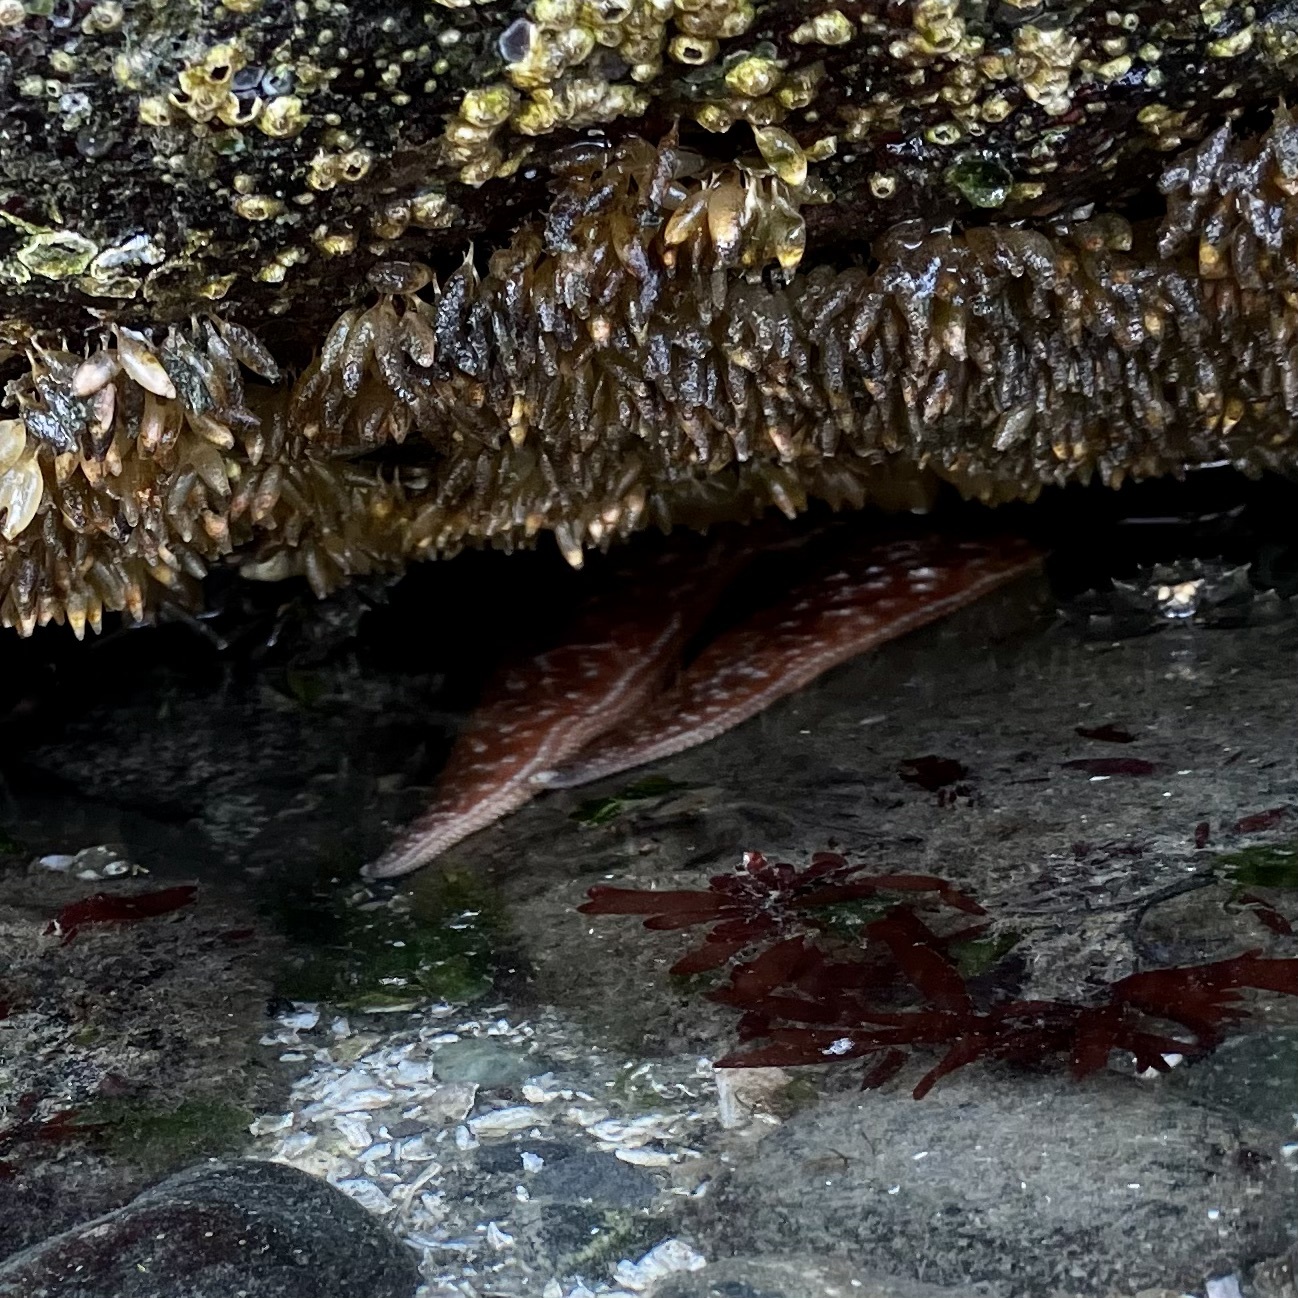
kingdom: Animalia
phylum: Echinodermata
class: Asteroidea
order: Forcipulatida
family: Asteriidae
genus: Evasterias
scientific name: Evasterias troschelii
